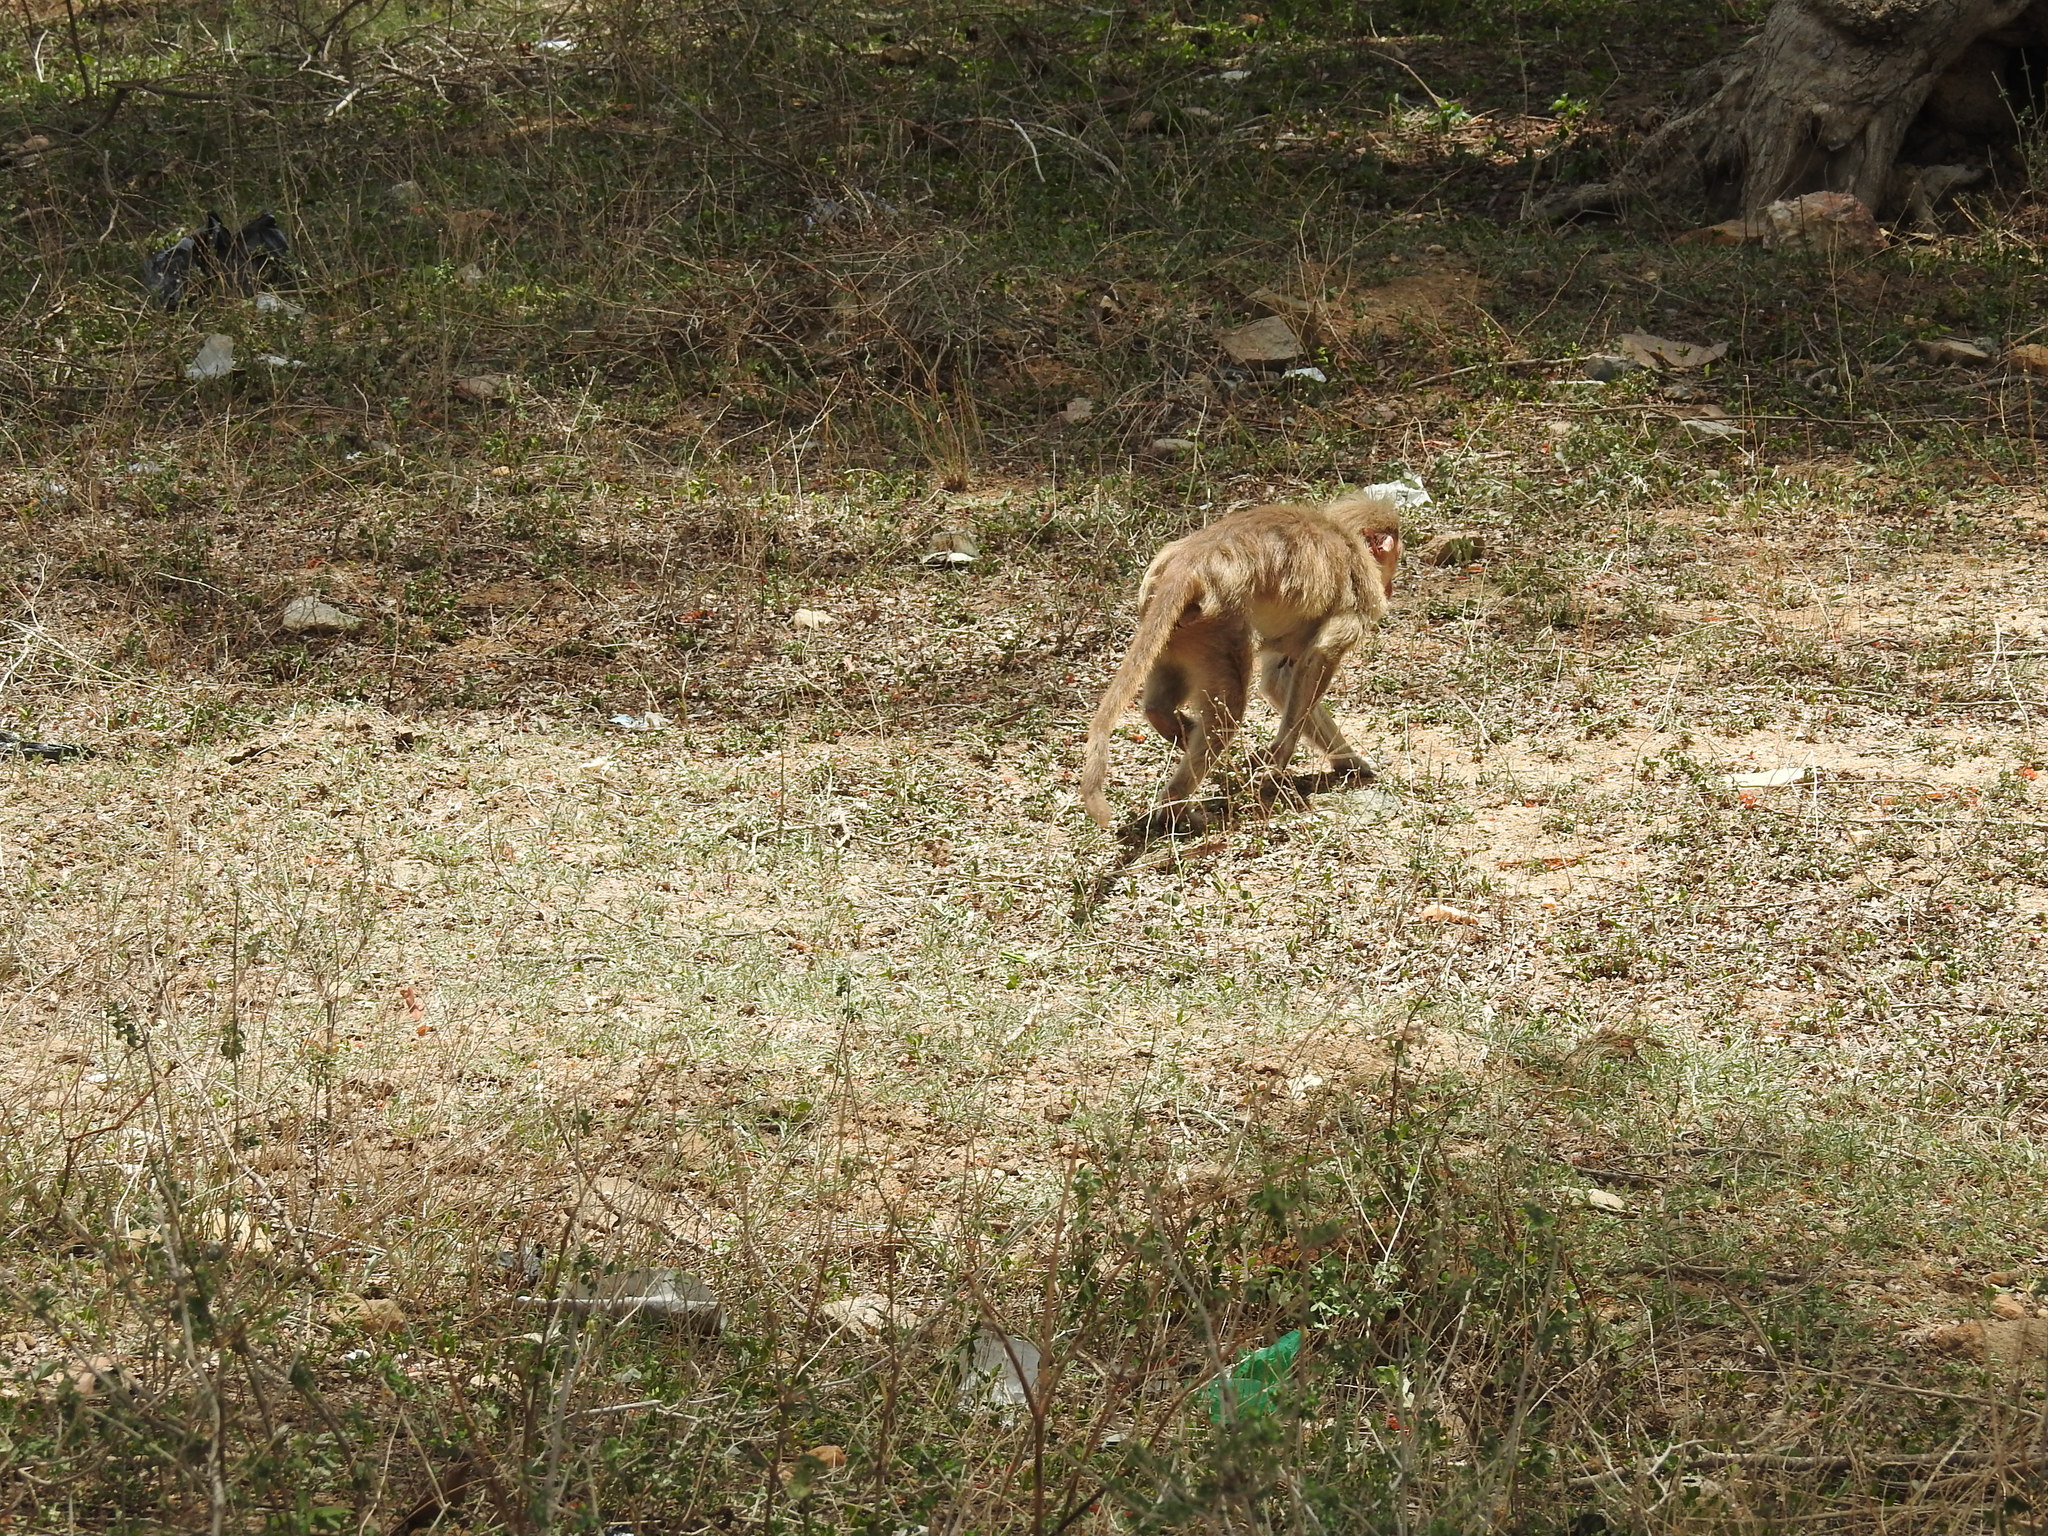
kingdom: Animalia
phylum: Chordata
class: Mammalia
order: Primates
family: Cercopithecidae
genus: Macaca
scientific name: Macaca radiata
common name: Bonnet macaque
